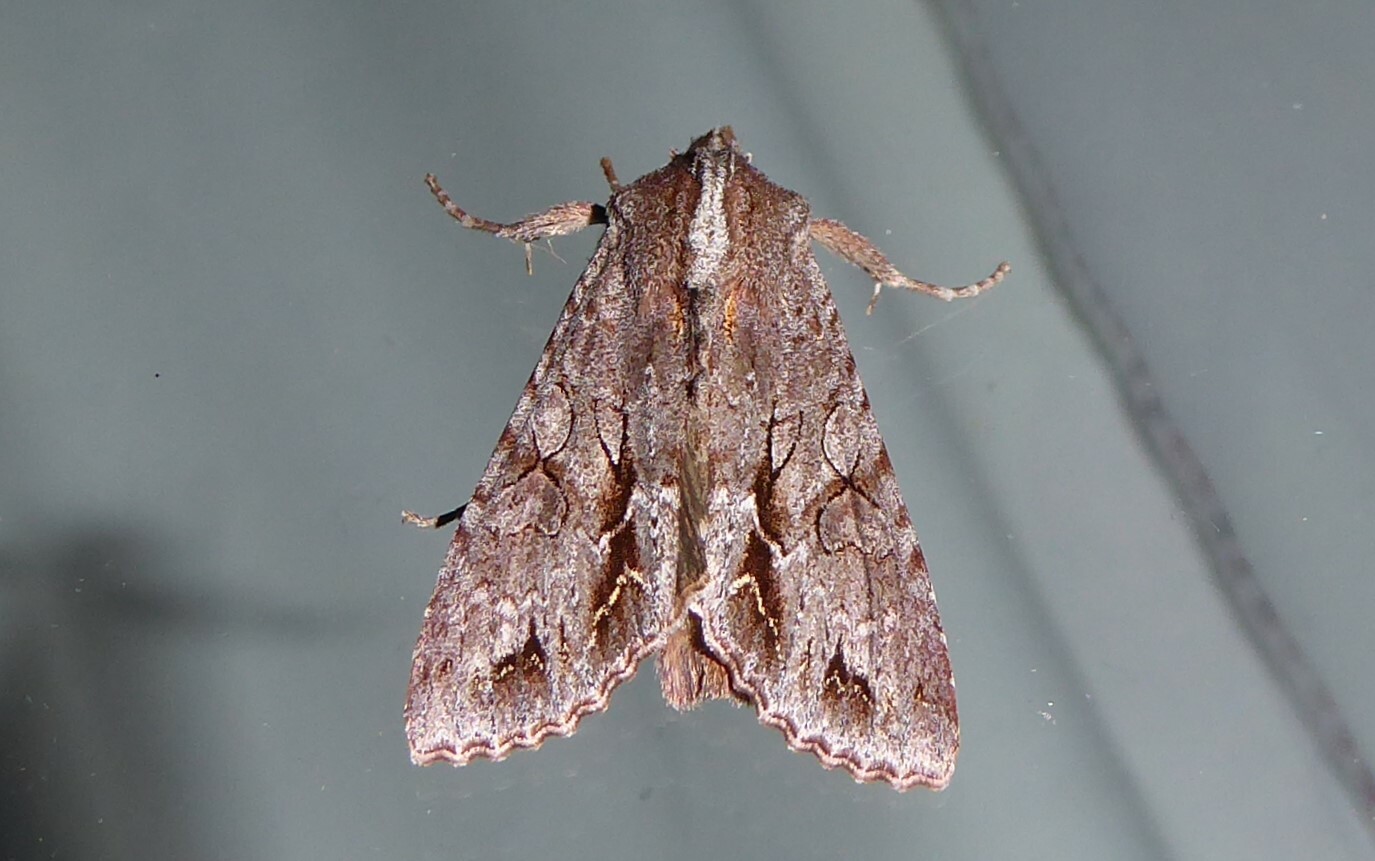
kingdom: Animalia
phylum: Arthropoda
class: Insecta
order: Lepidoptera
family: Noctuidae
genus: Ichneutica
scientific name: Ichneutica
